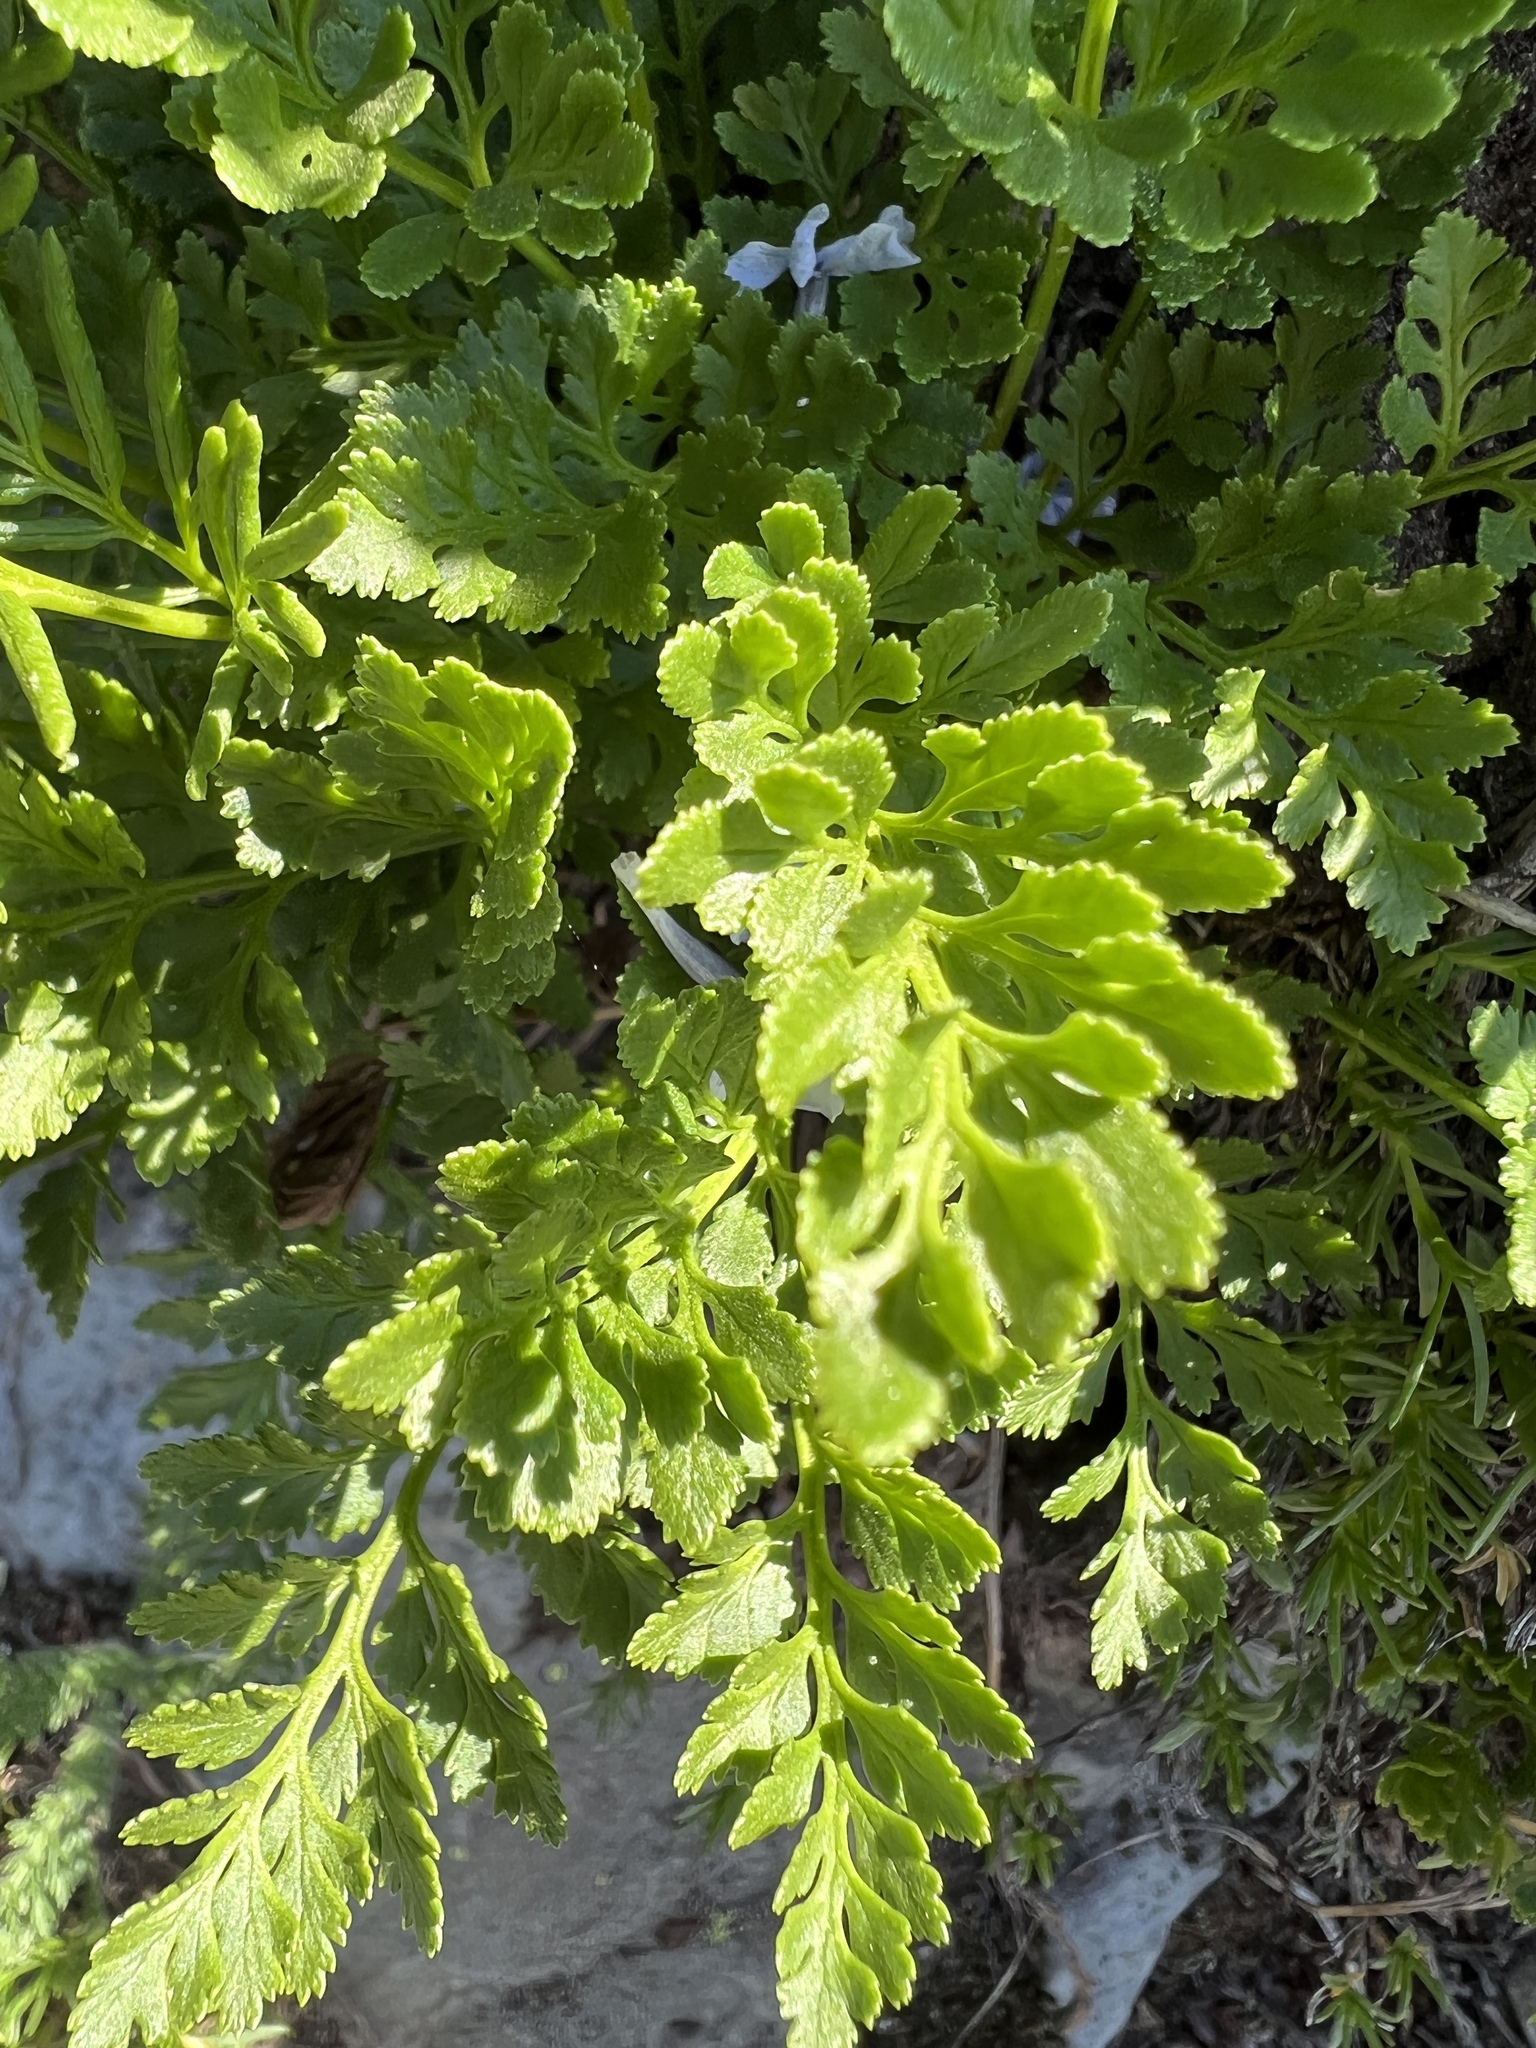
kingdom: Plantae
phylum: Tracheophyta
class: Polypodiopsida
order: Polypodiales
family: Pteridaceae
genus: Cryptogramma
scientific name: Cryptogramma acrostichoides
